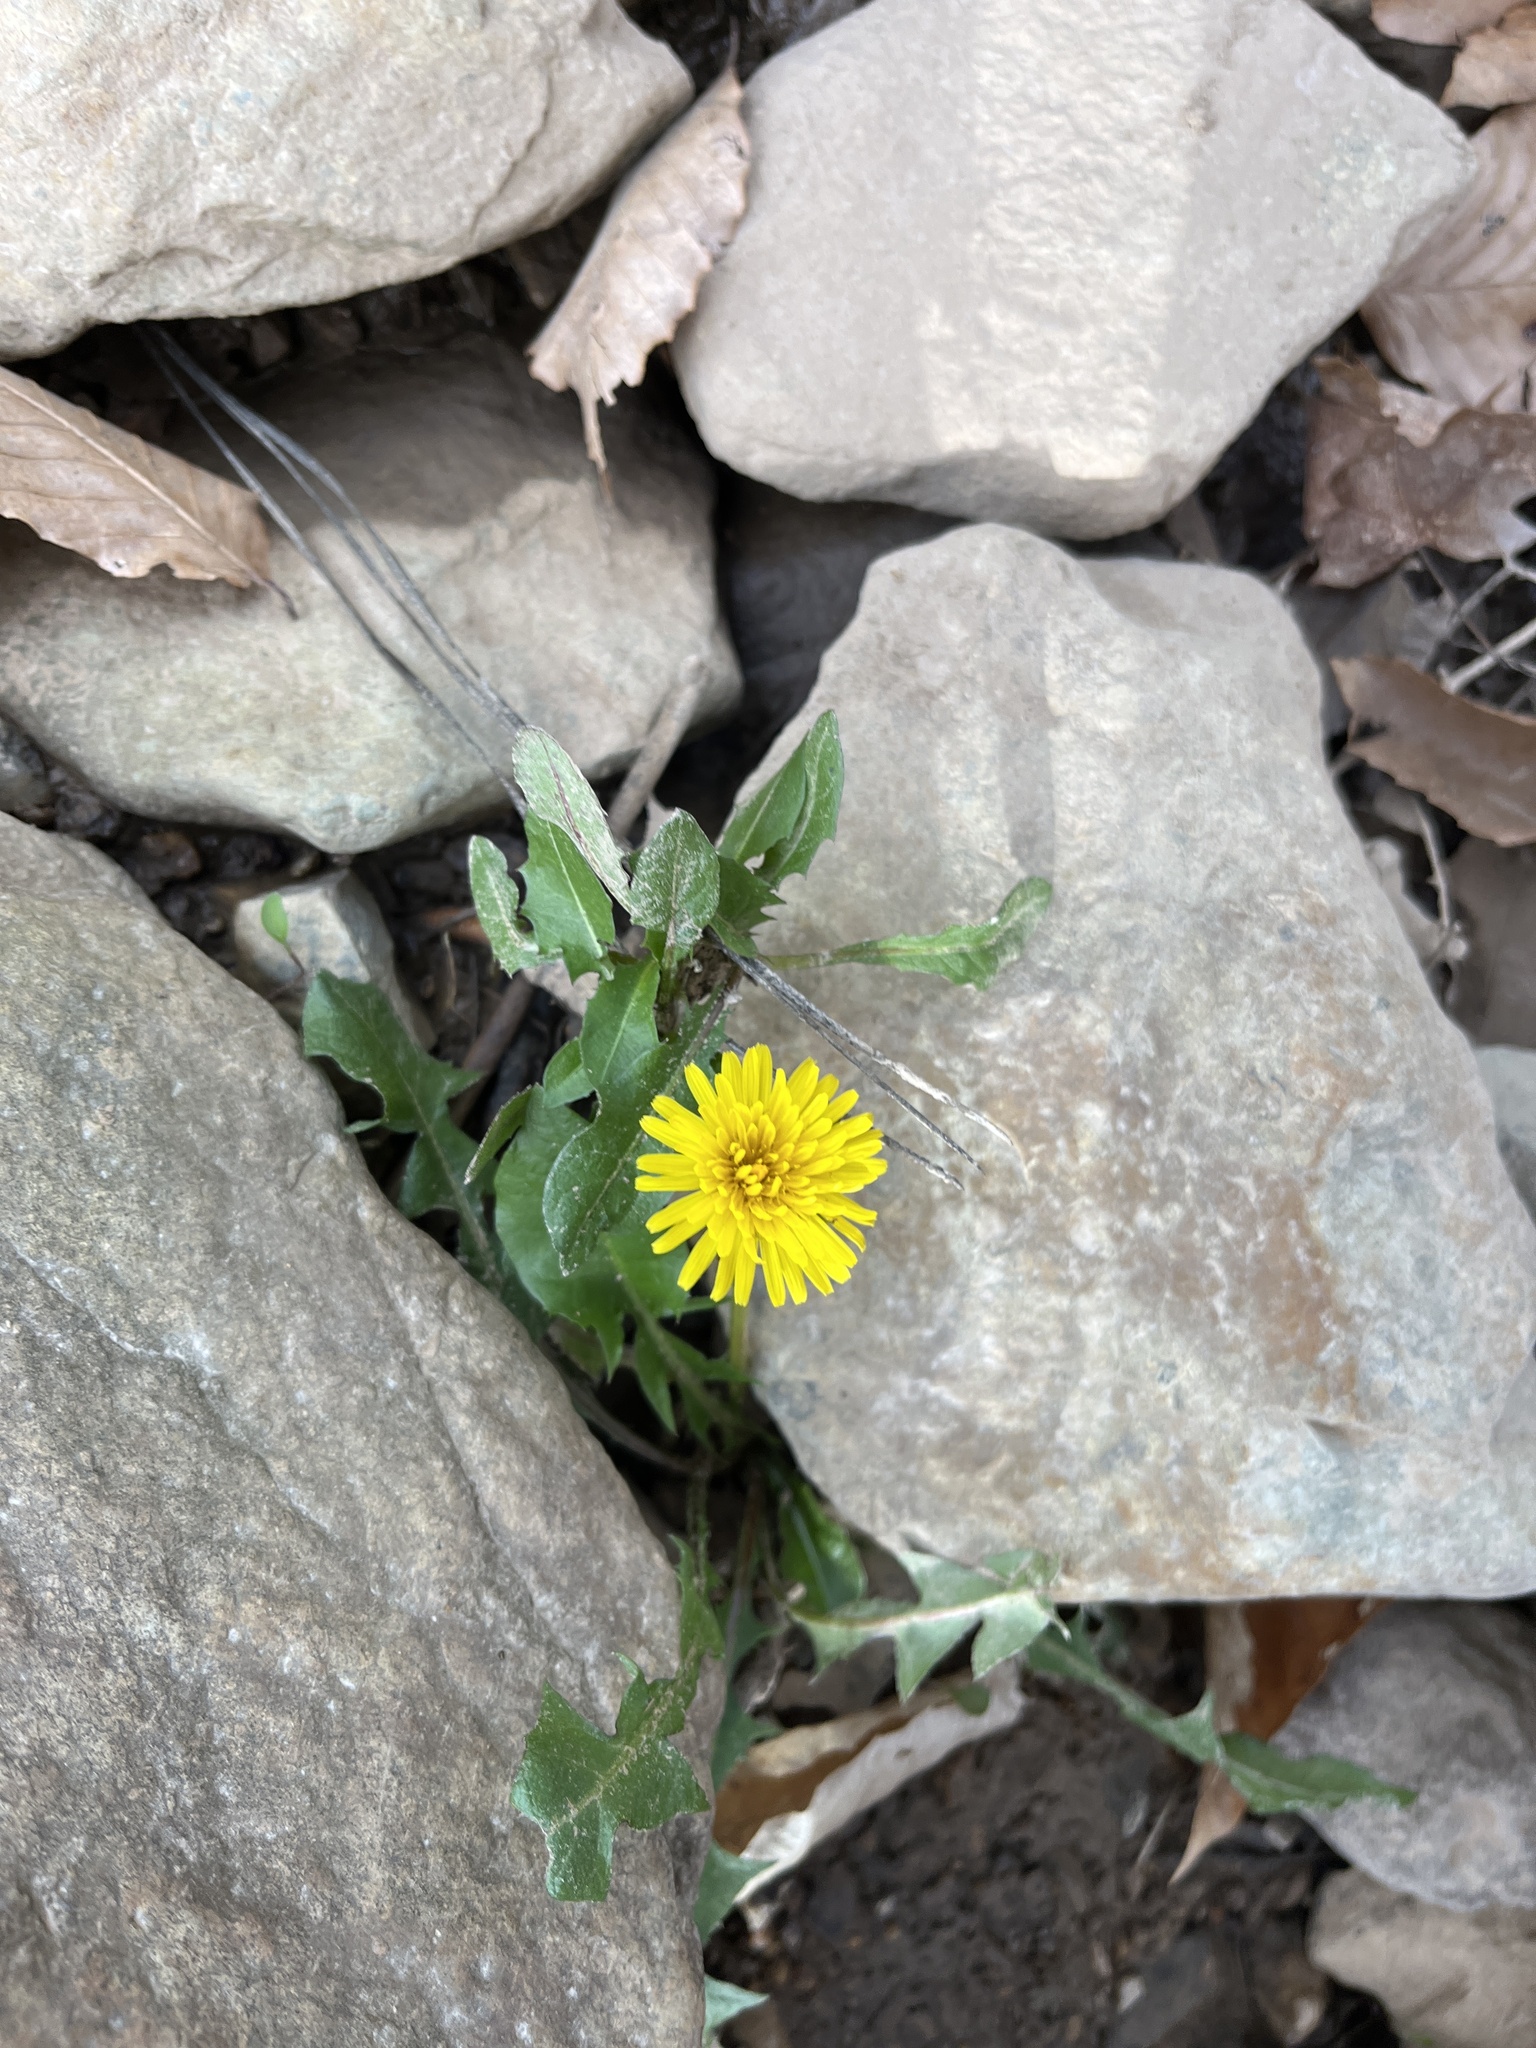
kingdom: Plantae
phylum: Tracheophyta
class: Magnoliopsida
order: Asterales
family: Asteraceae
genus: Taraxacum
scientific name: Taraxacum
